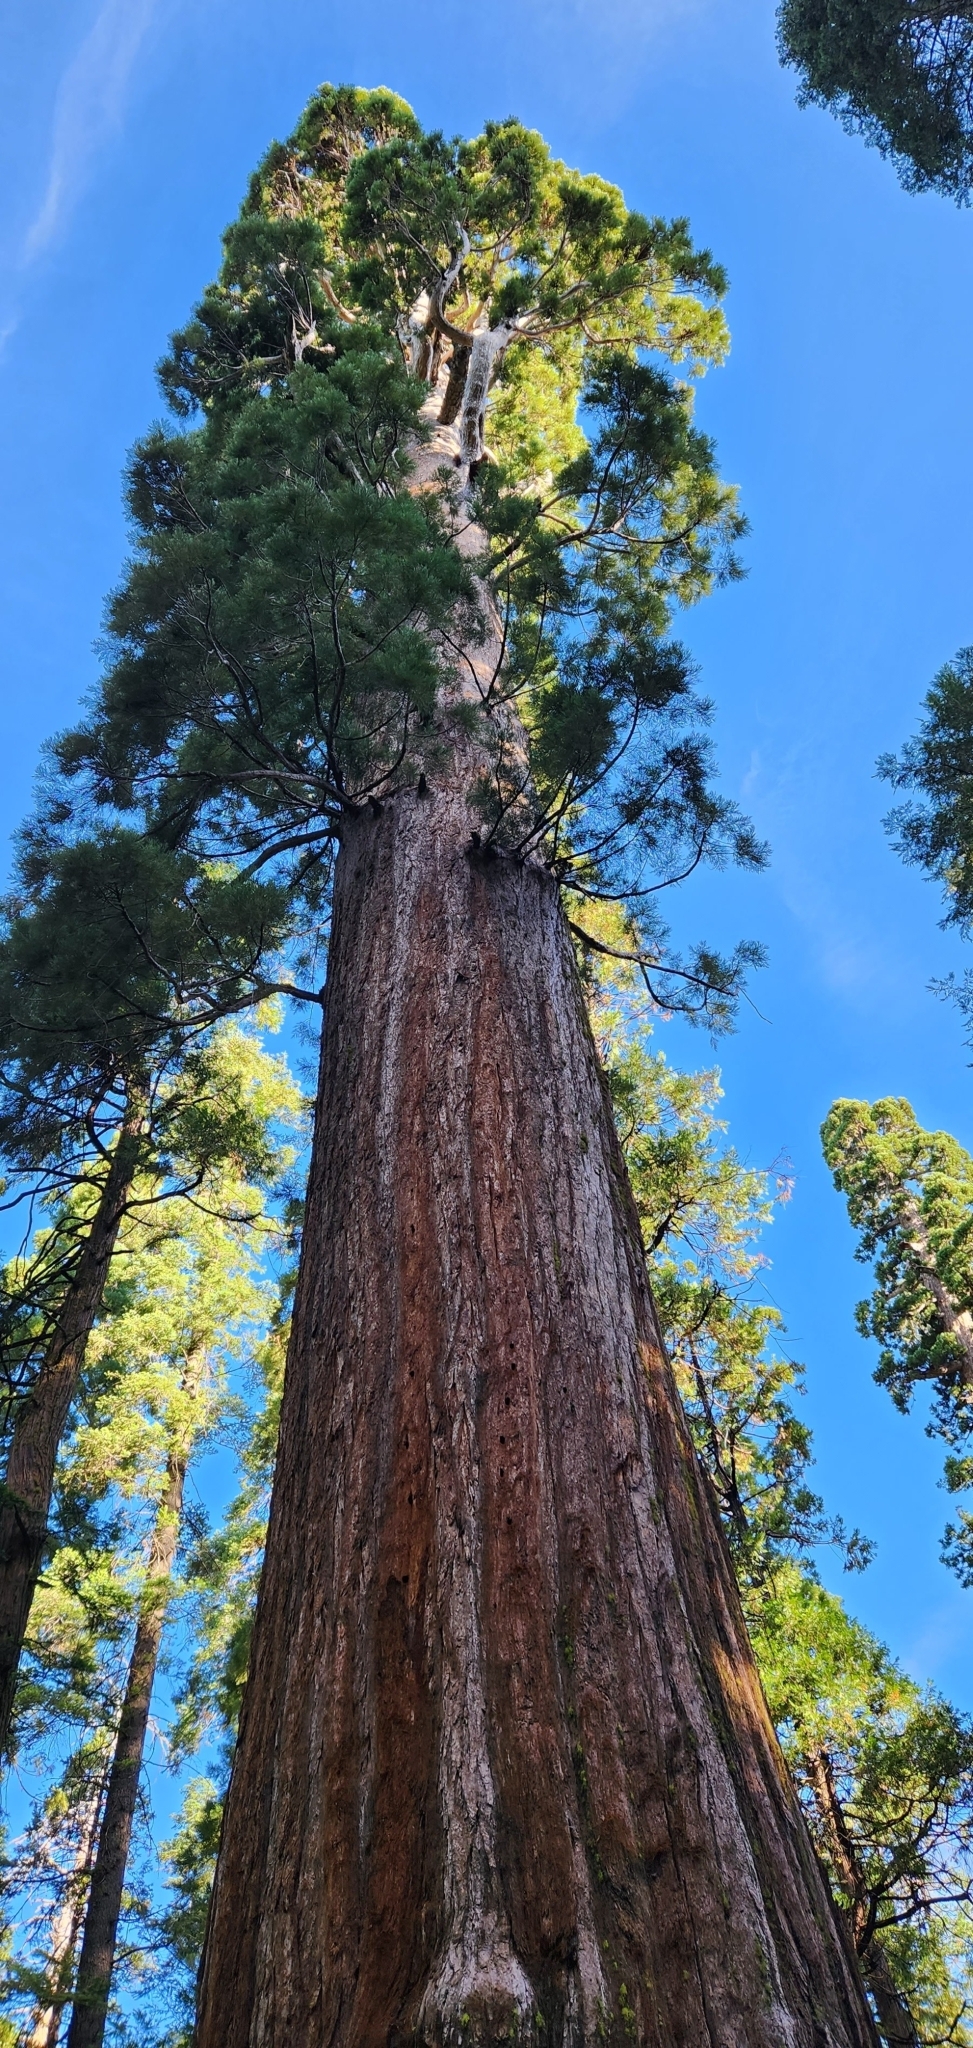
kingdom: Plantae
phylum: Tracheophyta
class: Pinopsida
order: Pinales
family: Cupressaceae
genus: Sequoiadendron
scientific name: Sequoiadendron giganteum
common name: Wellingtonia
